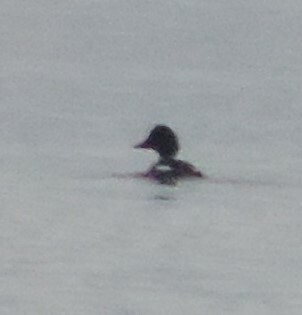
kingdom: Animalia
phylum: Chordata
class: Aves
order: Anseriformes
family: Anatidae
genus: Bucephala
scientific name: Bucephala clangula
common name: Common goldeneye
